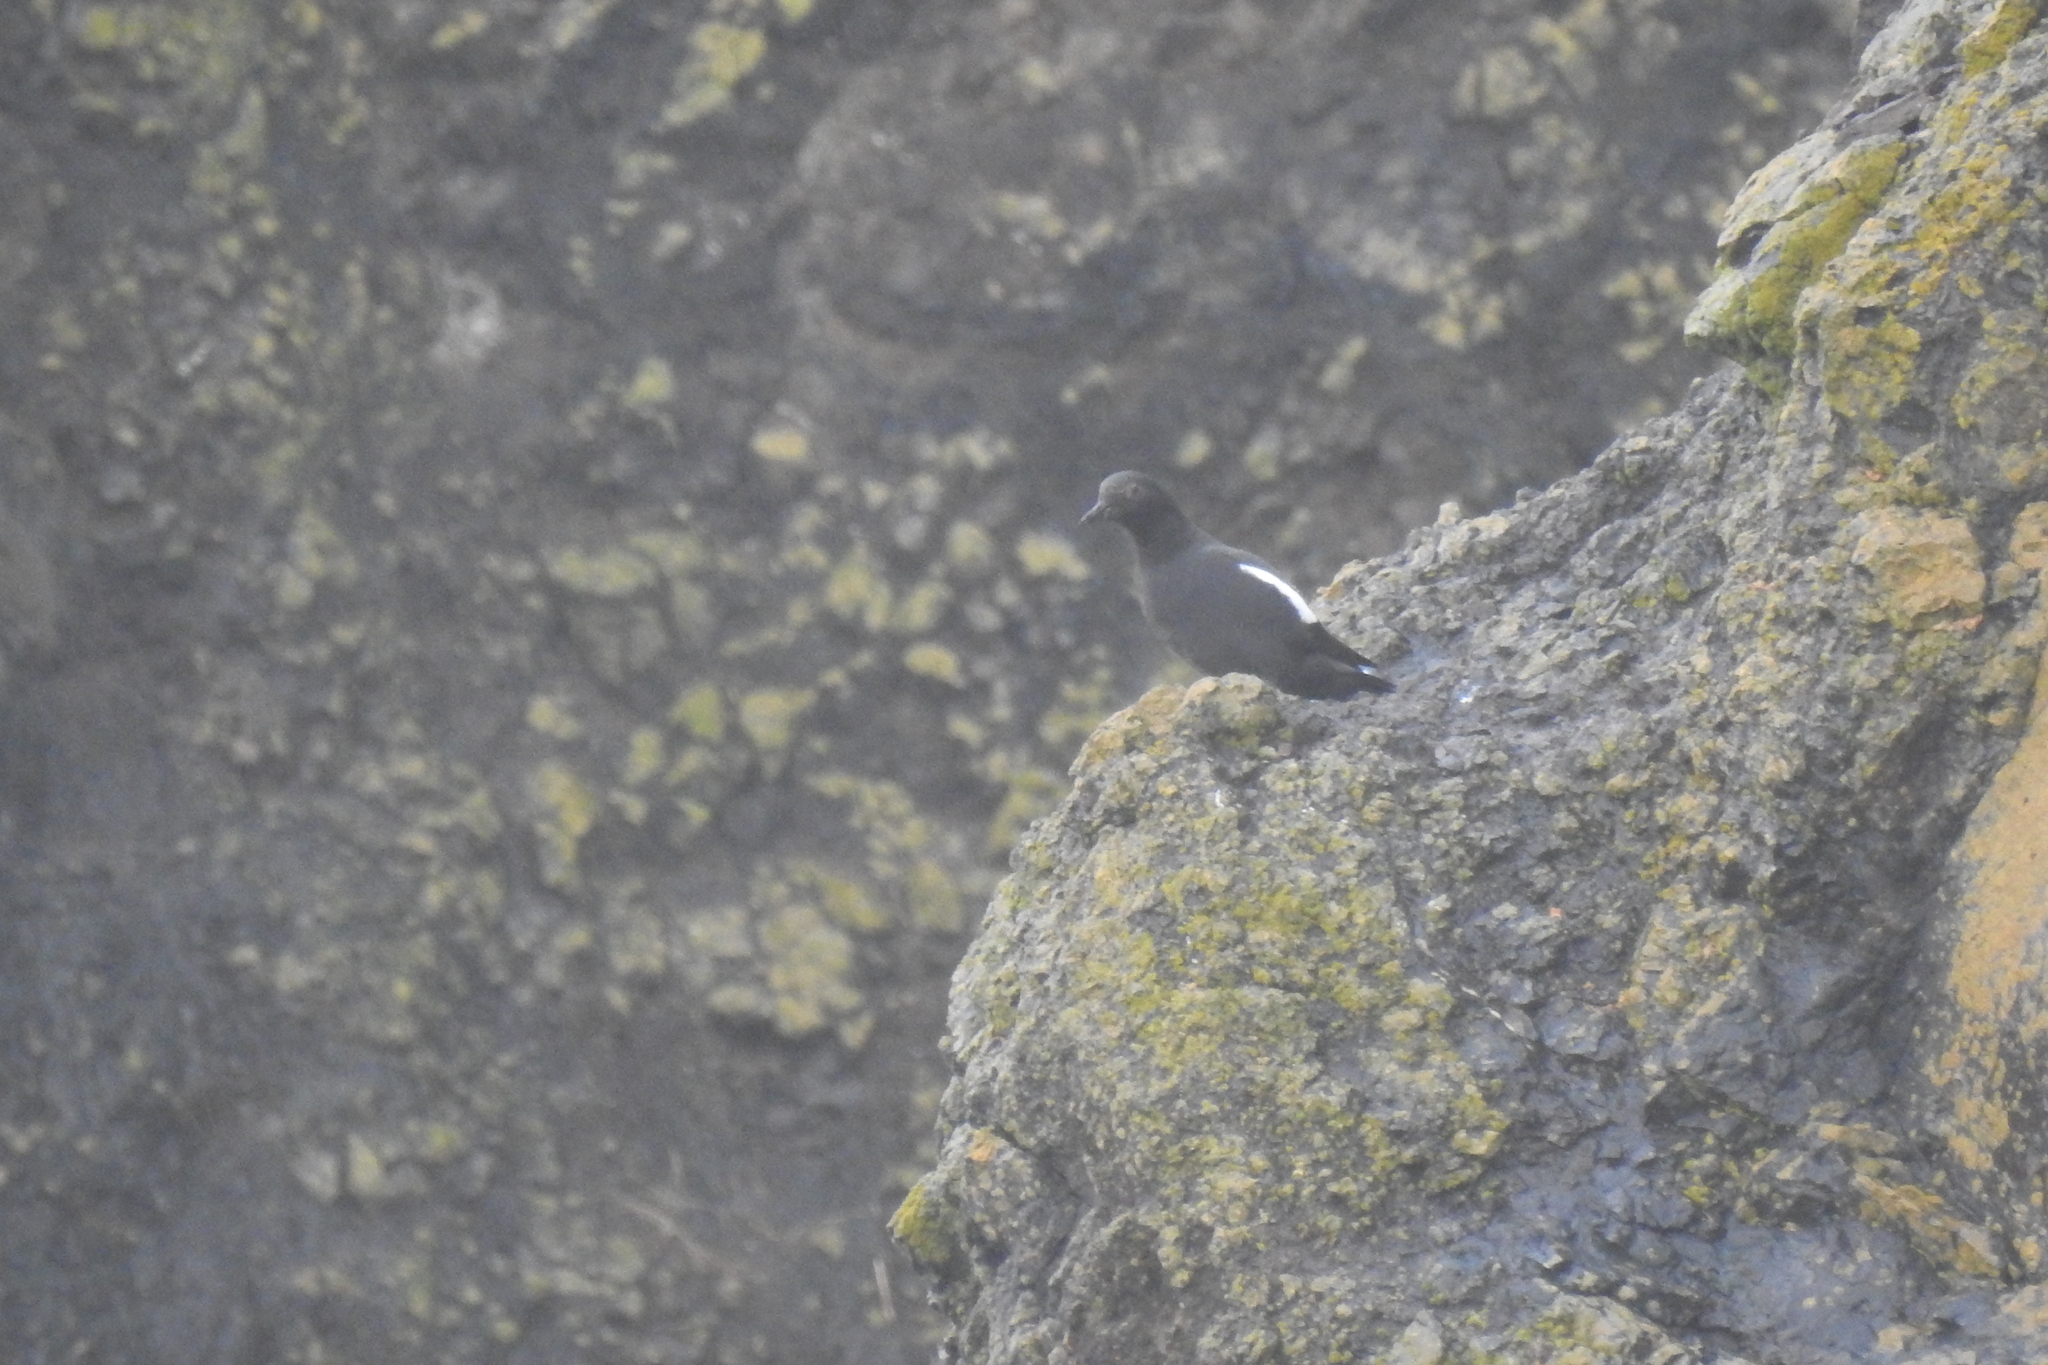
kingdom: Animalia
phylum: Chordata
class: Aves
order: Charadriiformes
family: Alcidae
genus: Cepphus
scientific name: Cepphus columba
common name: Pigeon guillemot
